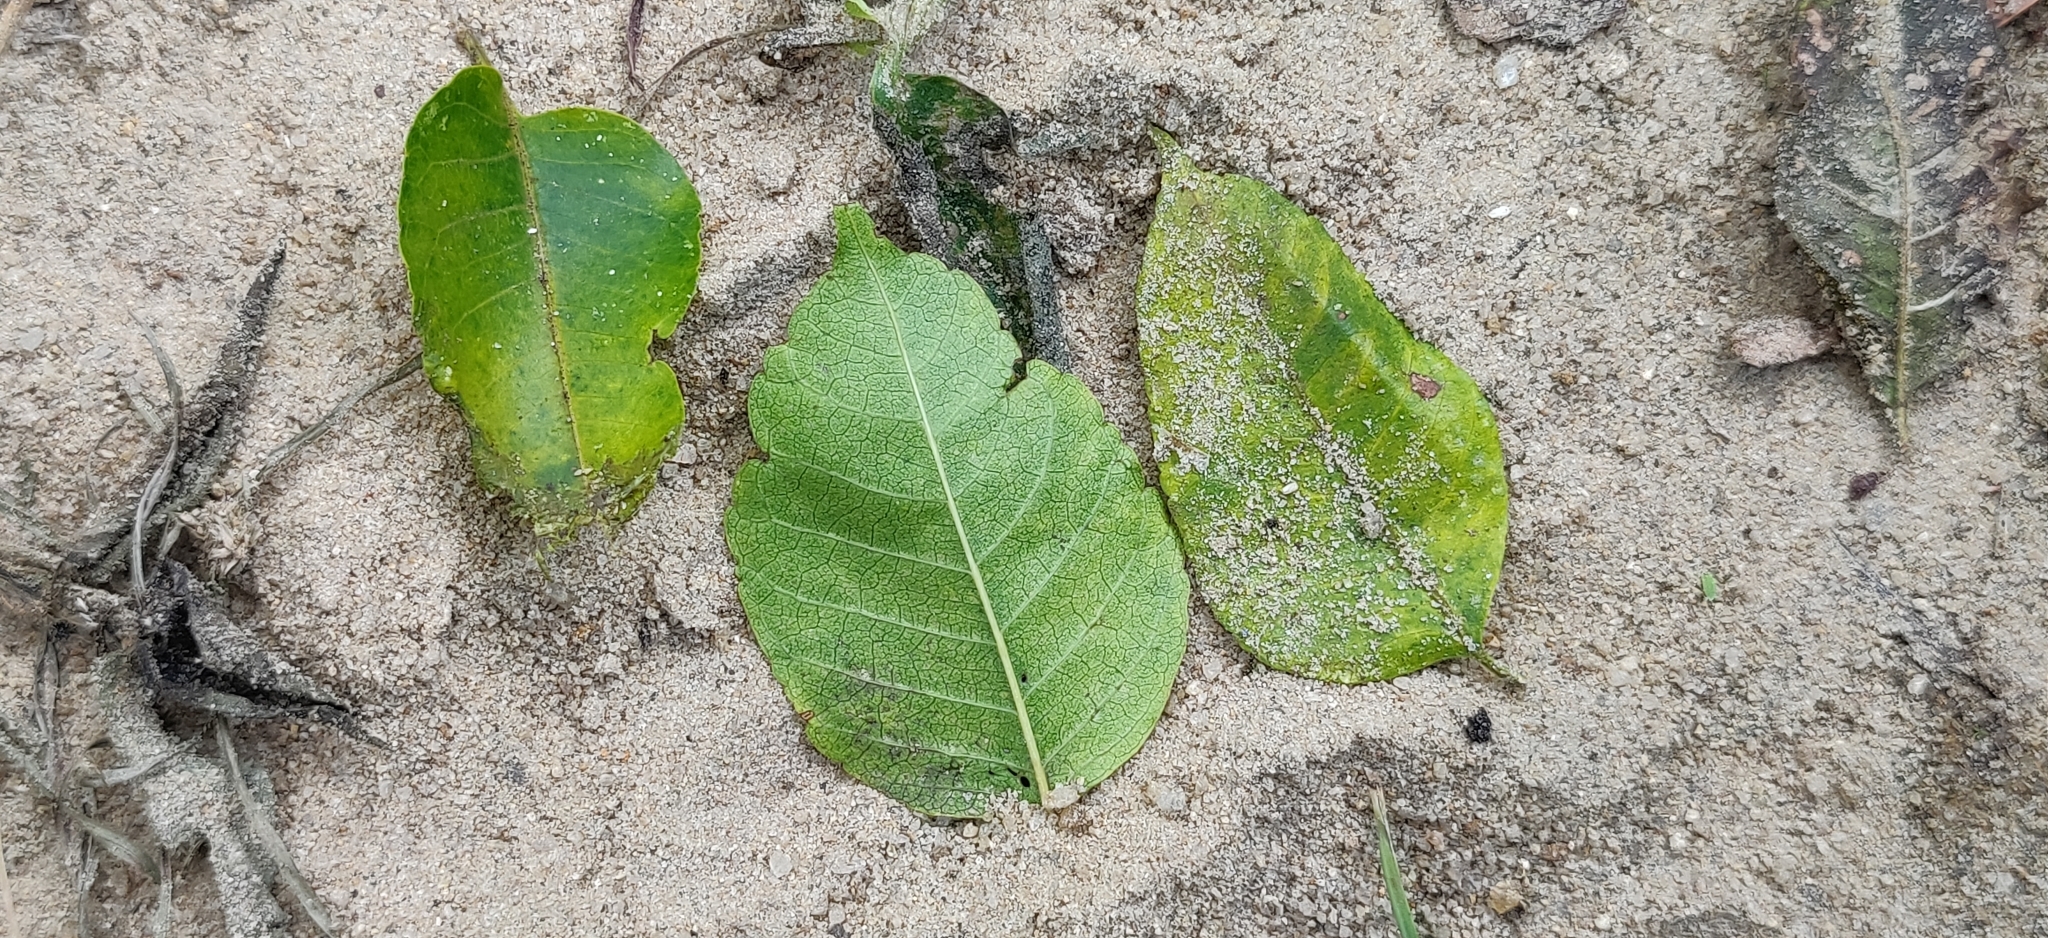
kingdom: Plantae
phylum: Tracheophyta
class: Magnoliopsida
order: Sapindales
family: Meliaceae
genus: Melia
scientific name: Melia dubia
